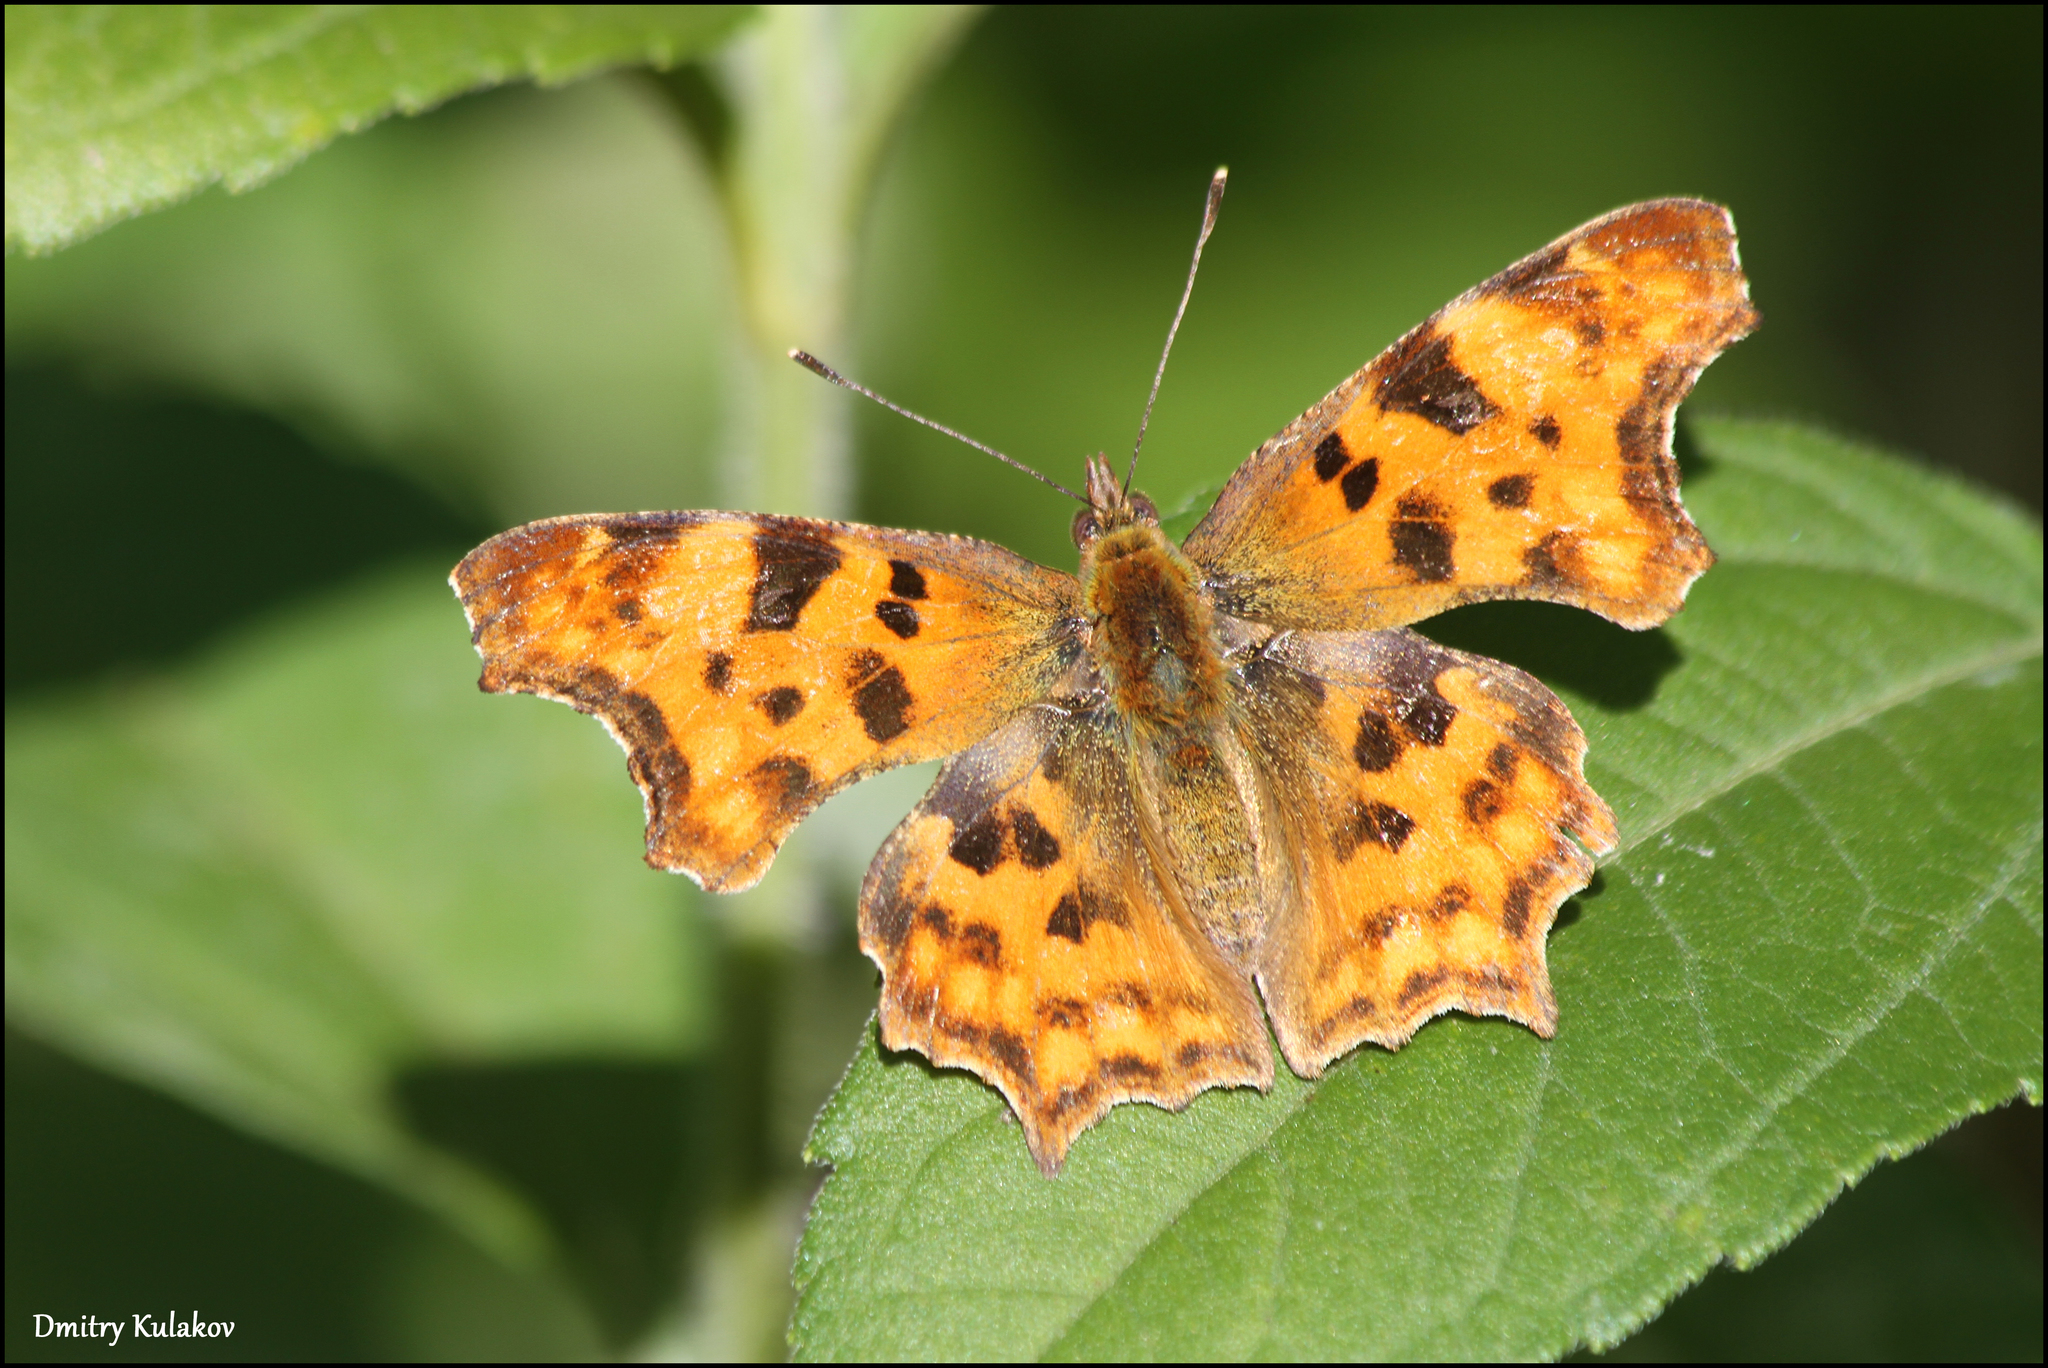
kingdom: Animalia
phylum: Arthropoda
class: Insecta
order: Lepidoptera
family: Nymphalidae
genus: Polygonia
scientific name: Polygonia c-album
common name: Comma
